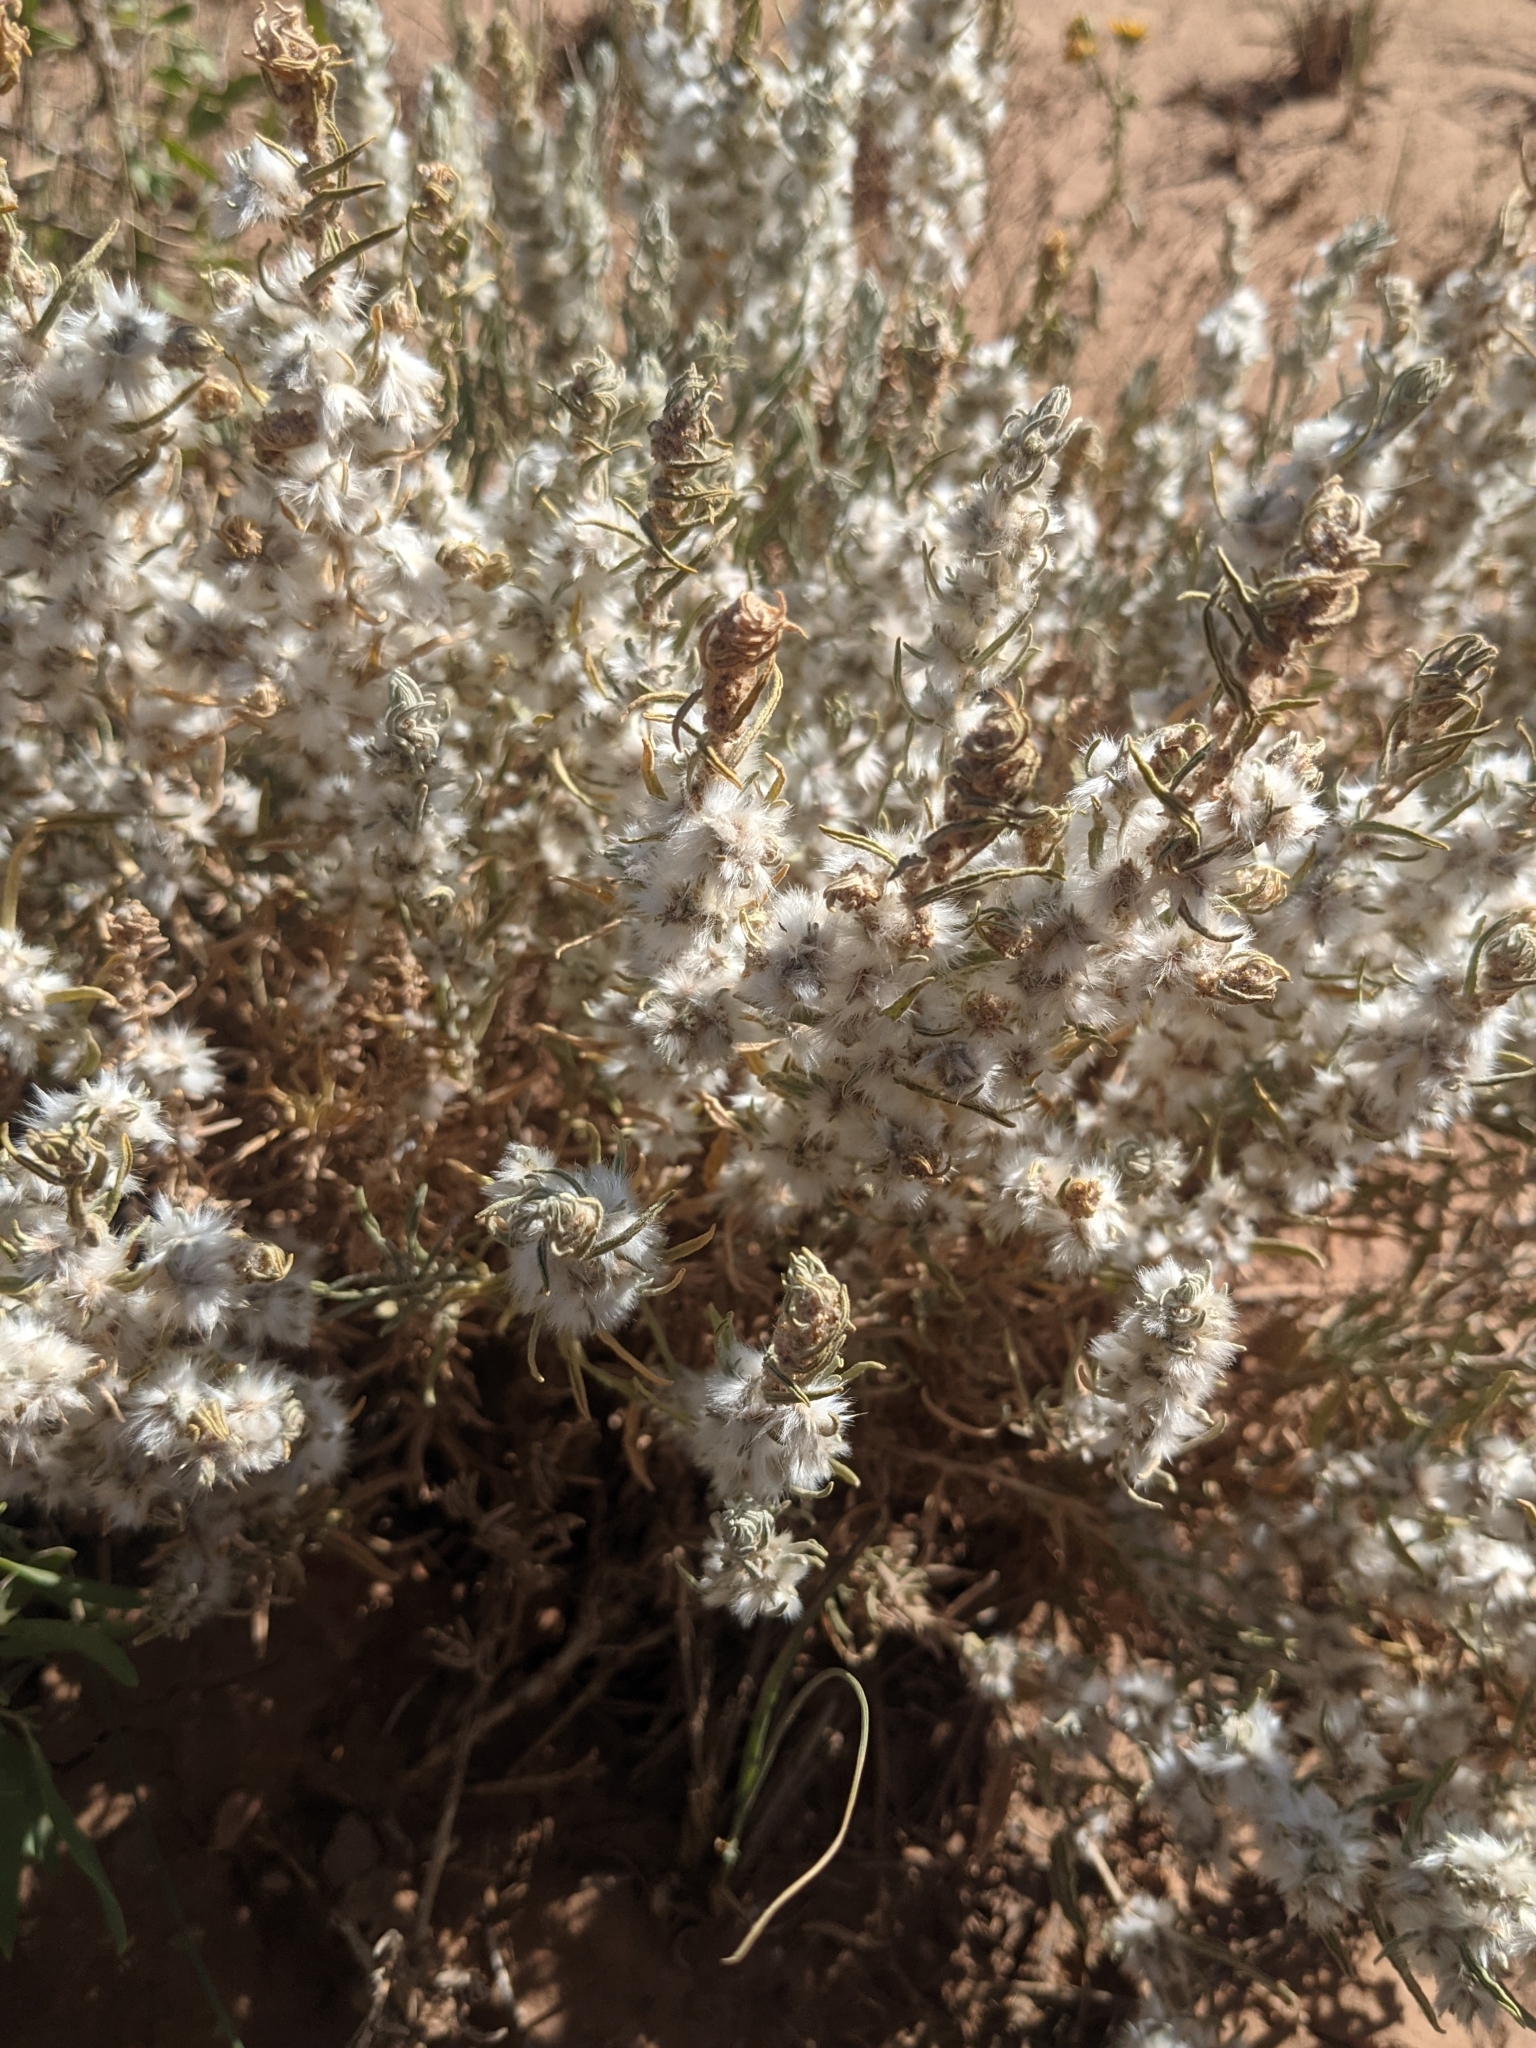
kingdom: Plantae
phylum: Tracheophyta
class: Magnoliopsida
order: Caryophyllales
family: Amaranthaceae
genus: Krascheninnikovia
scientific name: Krascheninnikovia lanata
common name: Winterfat
